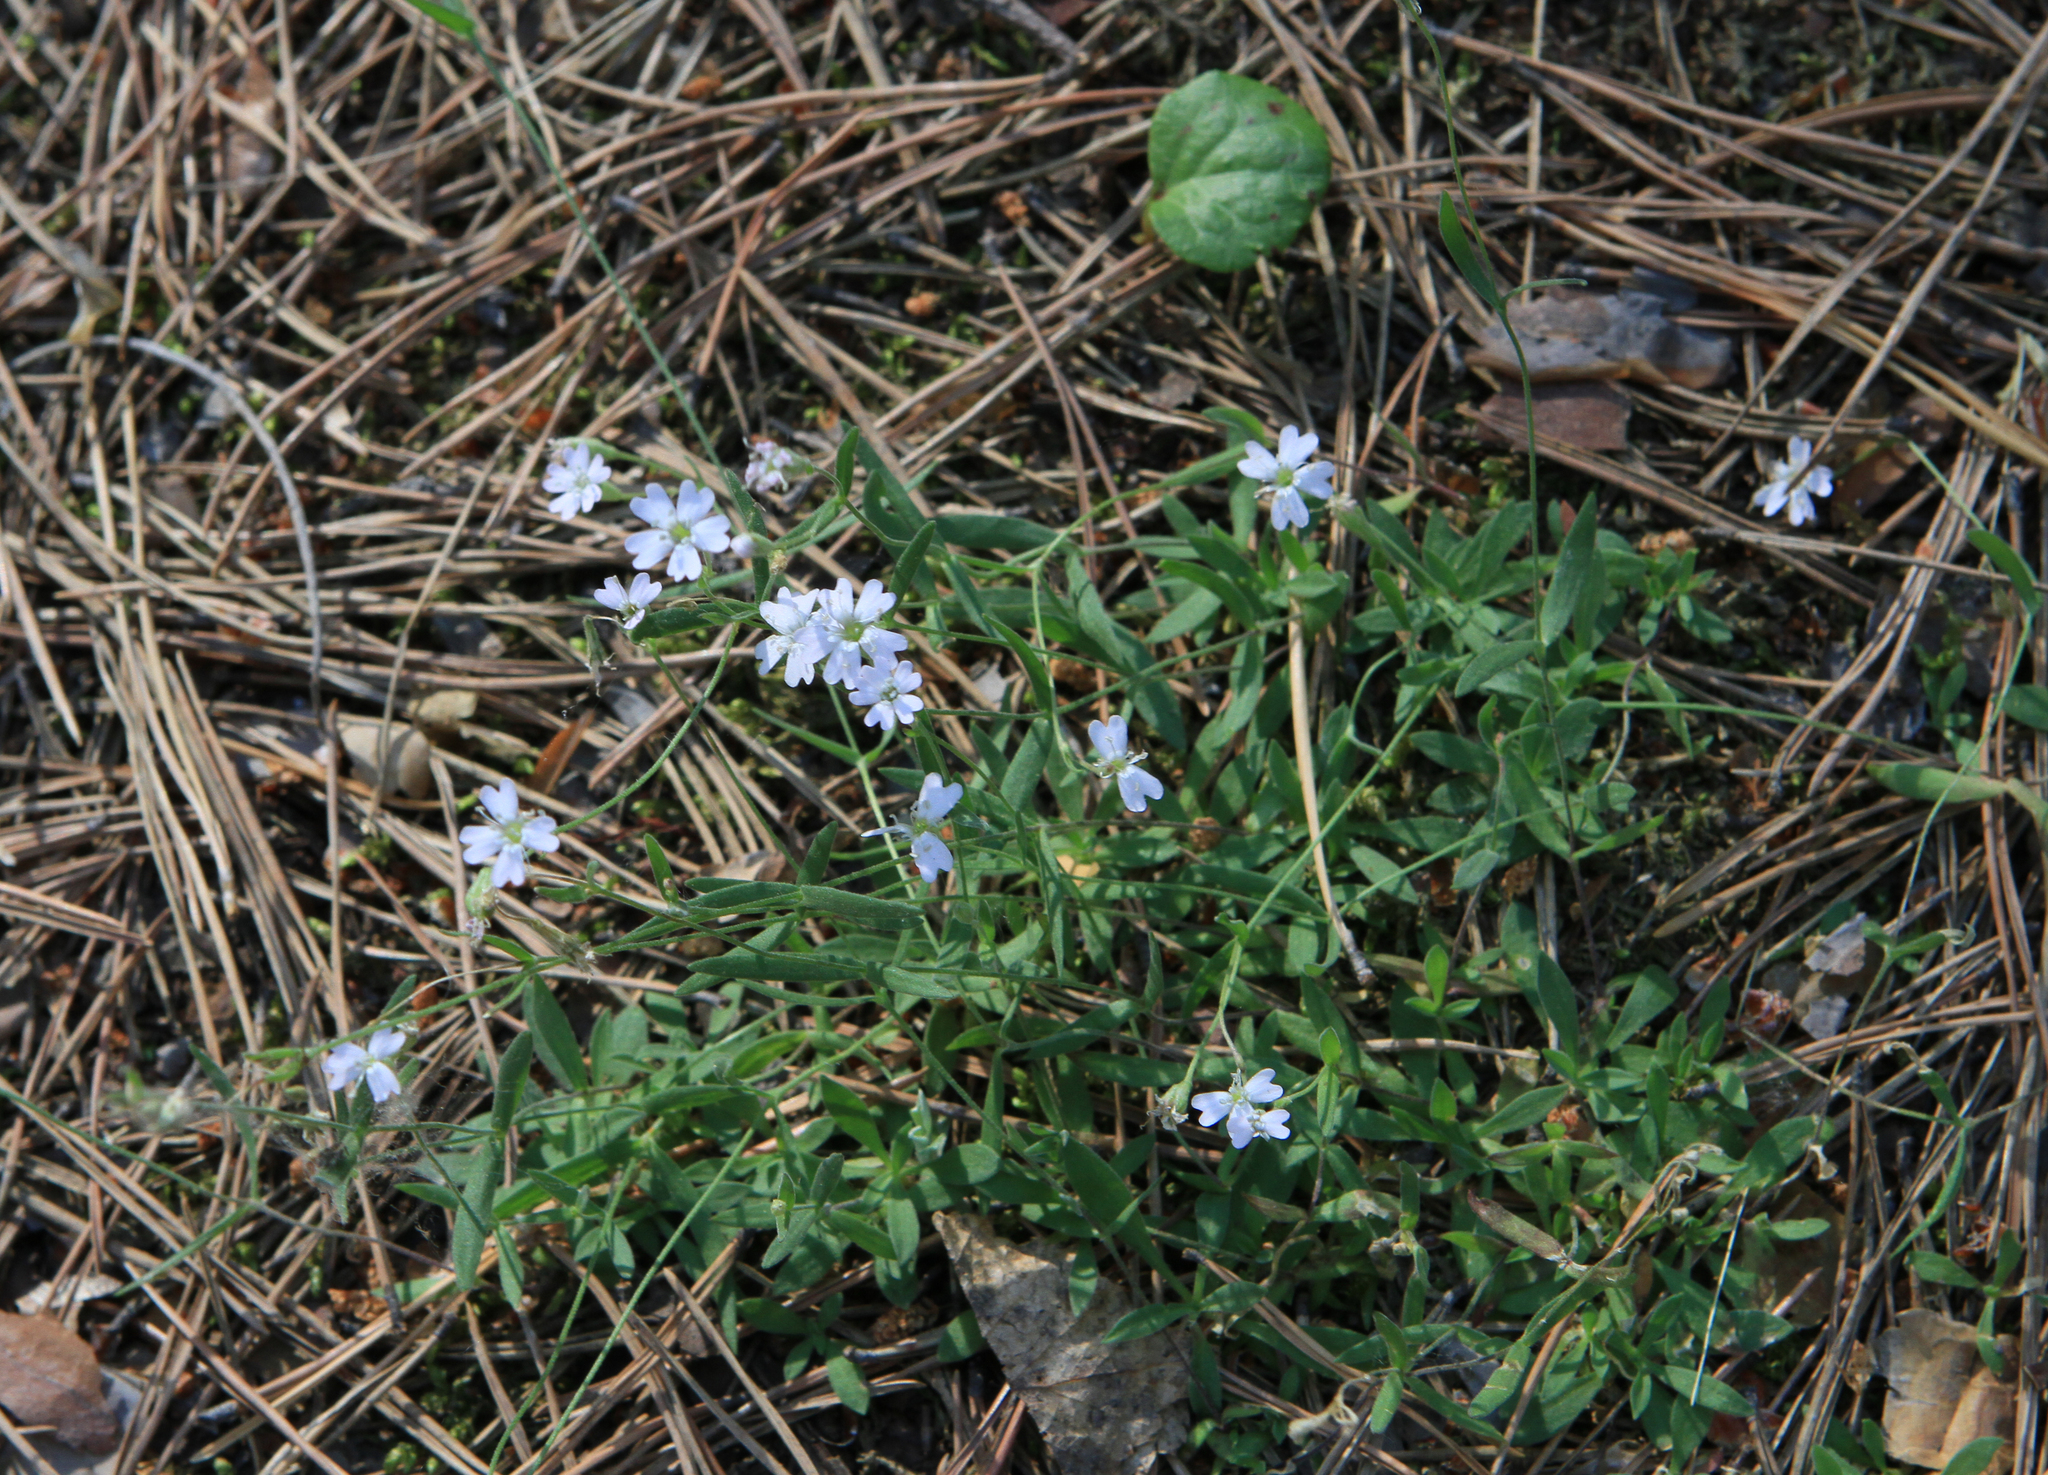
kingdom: Plantae
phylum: Tracheophyta
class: Magnoliopsida
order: Caryophyllales
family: Caryophyllaceae
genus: Silene
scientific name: Silene orientalimongolica
